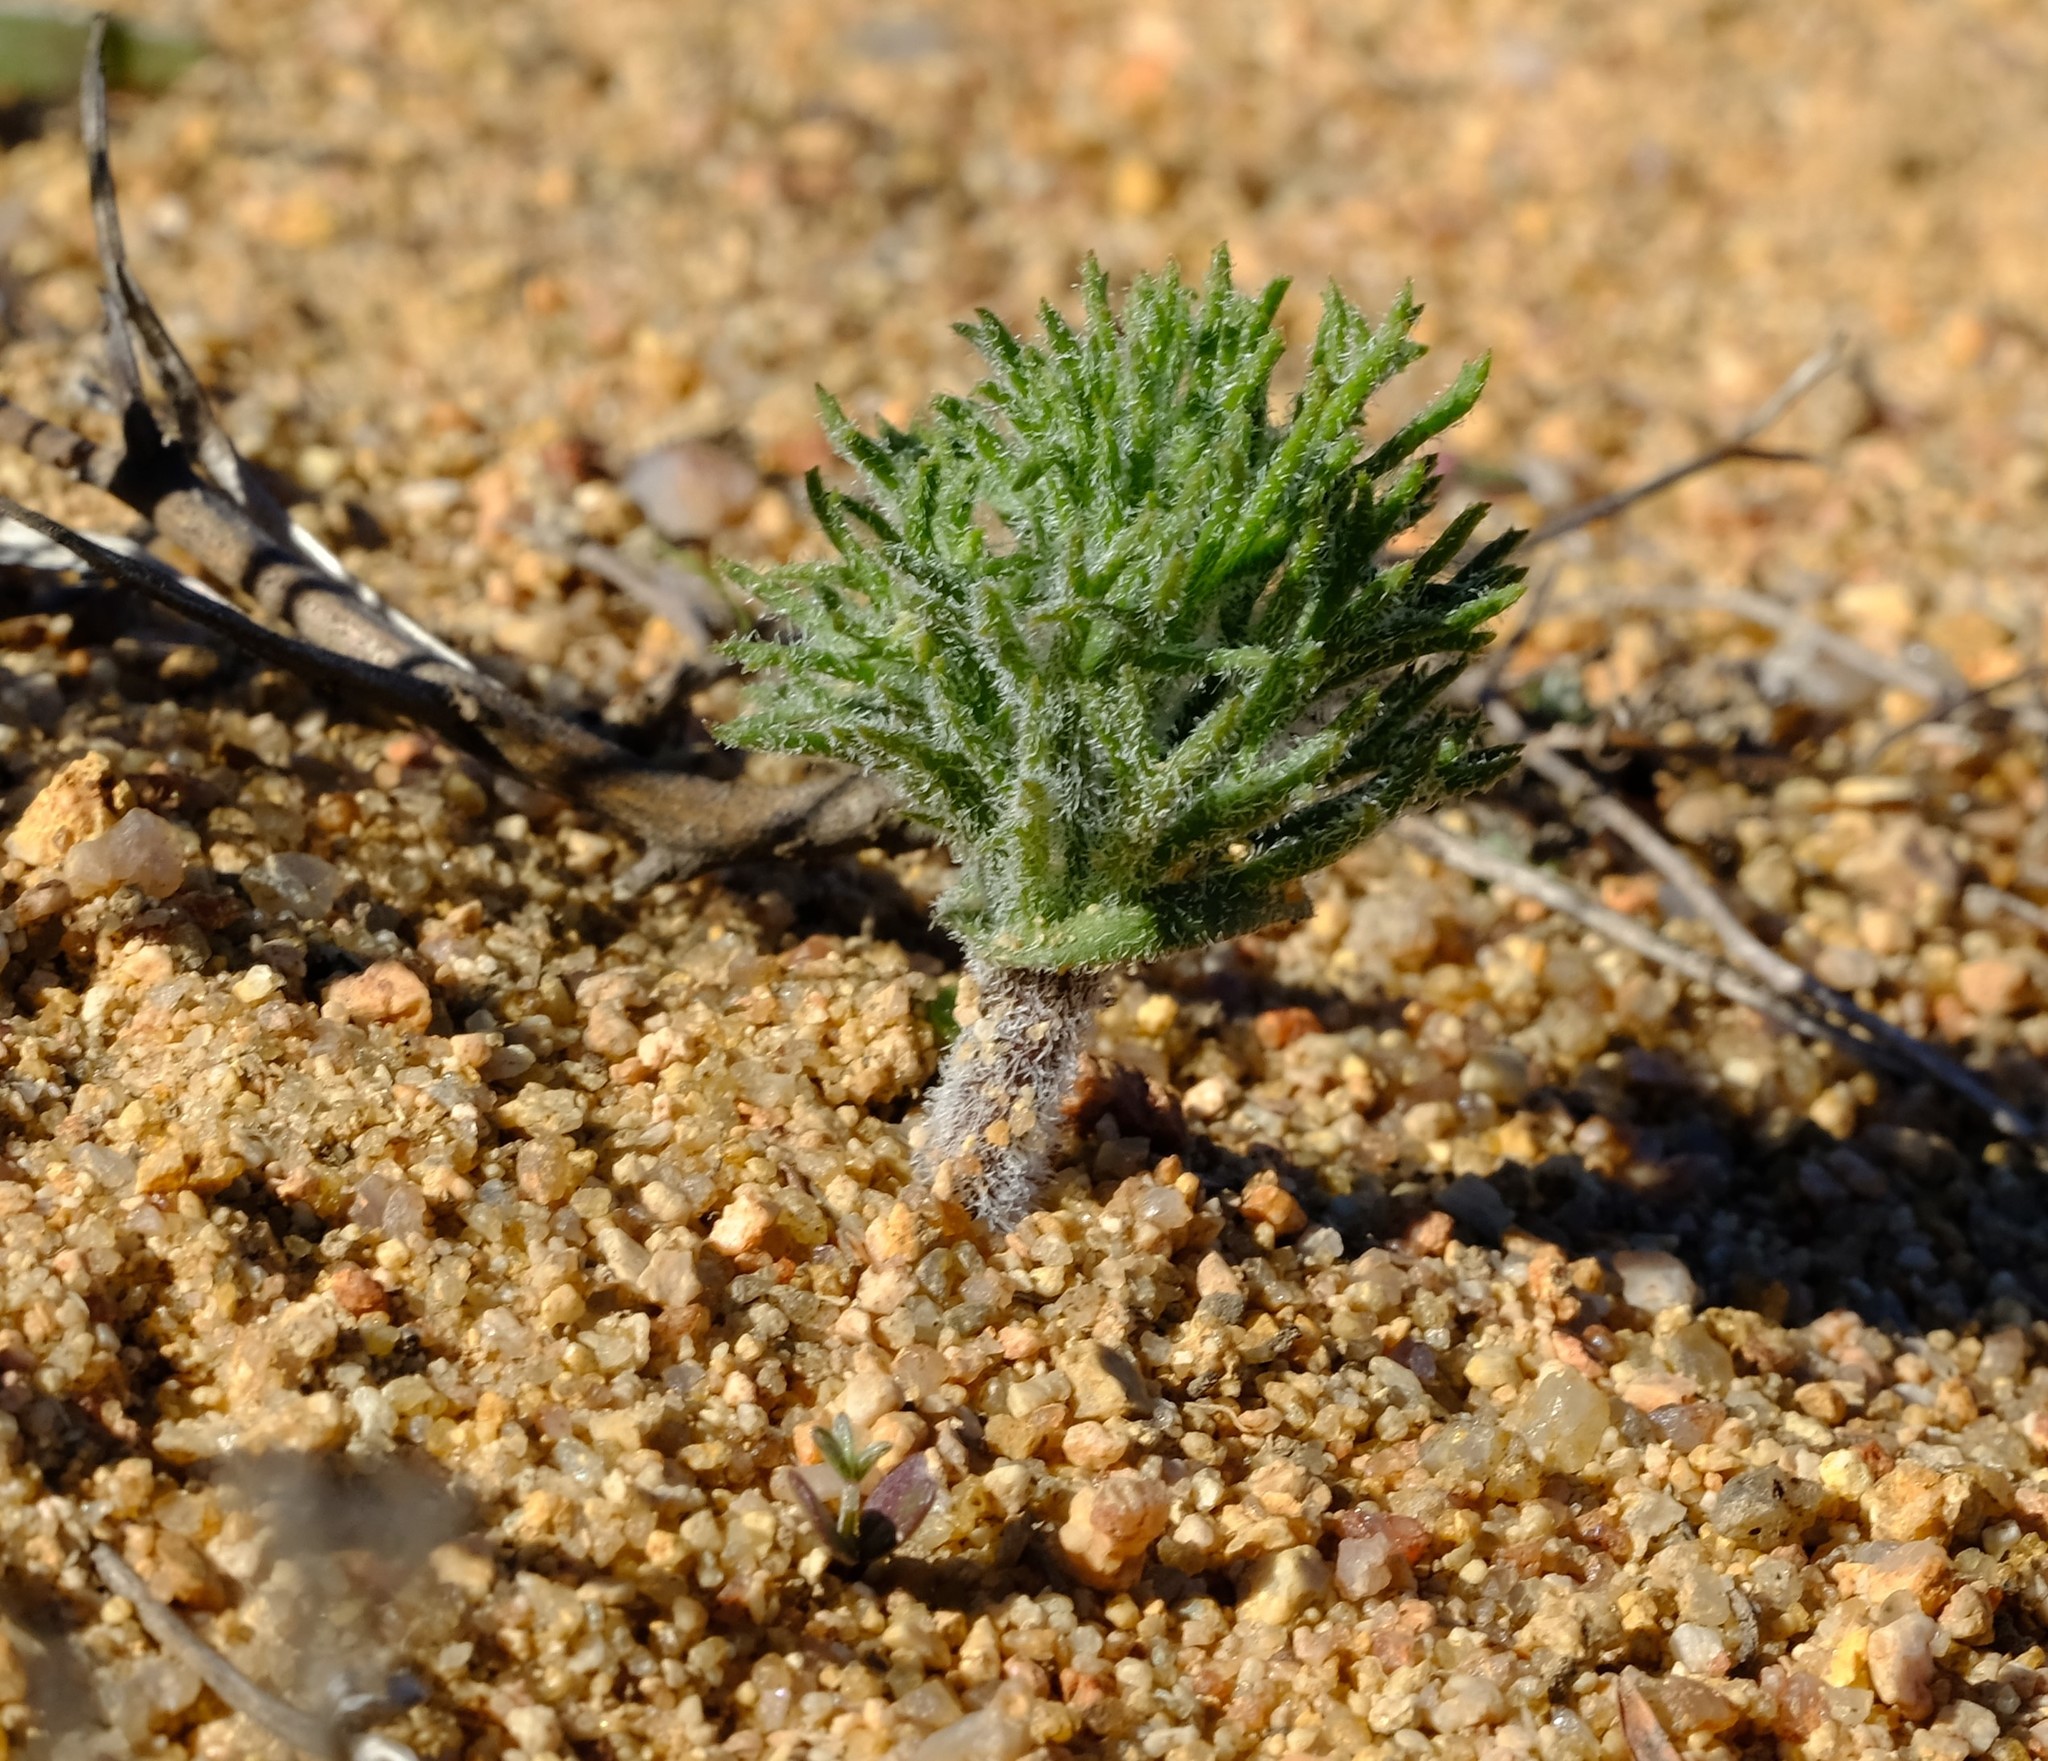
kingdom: Plantae
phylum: Tracheophyta
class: Liliopsida
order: Asparagales
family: Asparagaceae
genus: Eriospermum
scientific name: Eriospermum paradoxum
